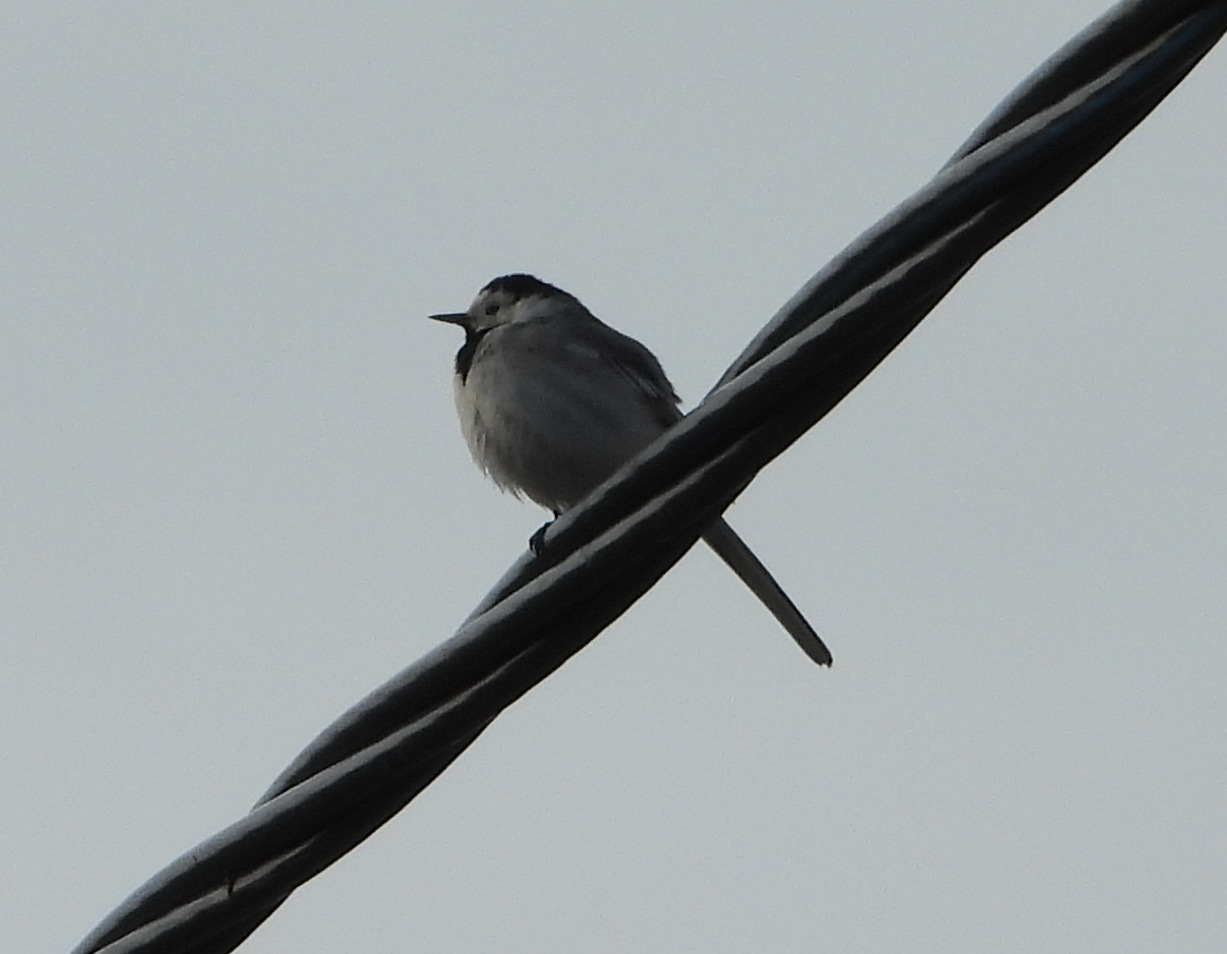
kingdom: Animalia
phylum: Chordata
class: Aves
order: Passeriformes
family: Motacillidae
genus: Motacilla
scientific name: Motacilla alba
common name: White wagtail
